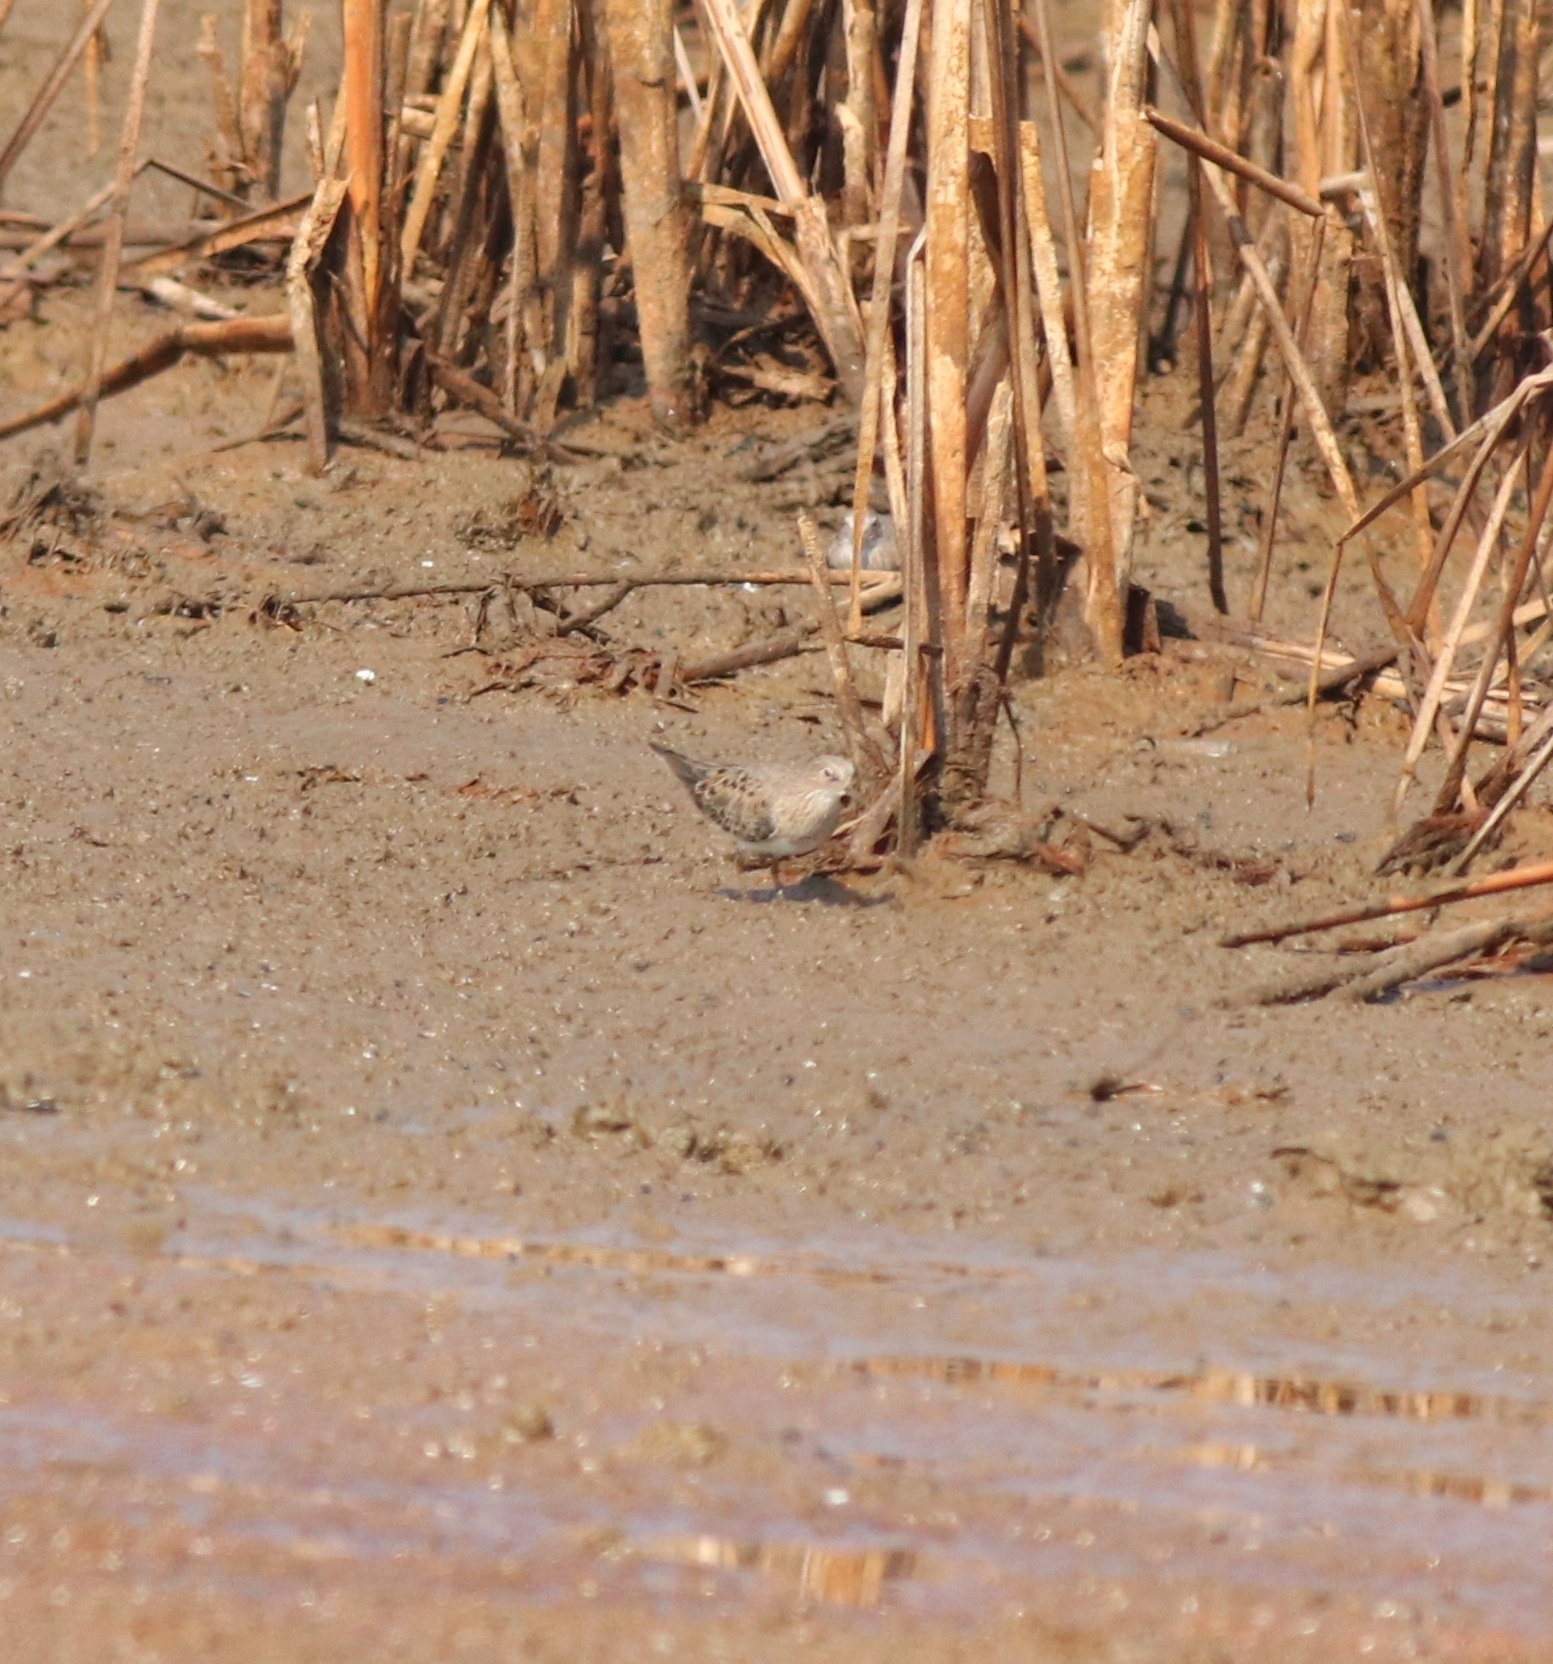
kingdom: Animalia
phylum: Chordata
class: Aves
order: Charadriiformes
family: Scolopacidae
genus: Calidris
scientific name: Calidris temminckii
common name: Temminck's stint
